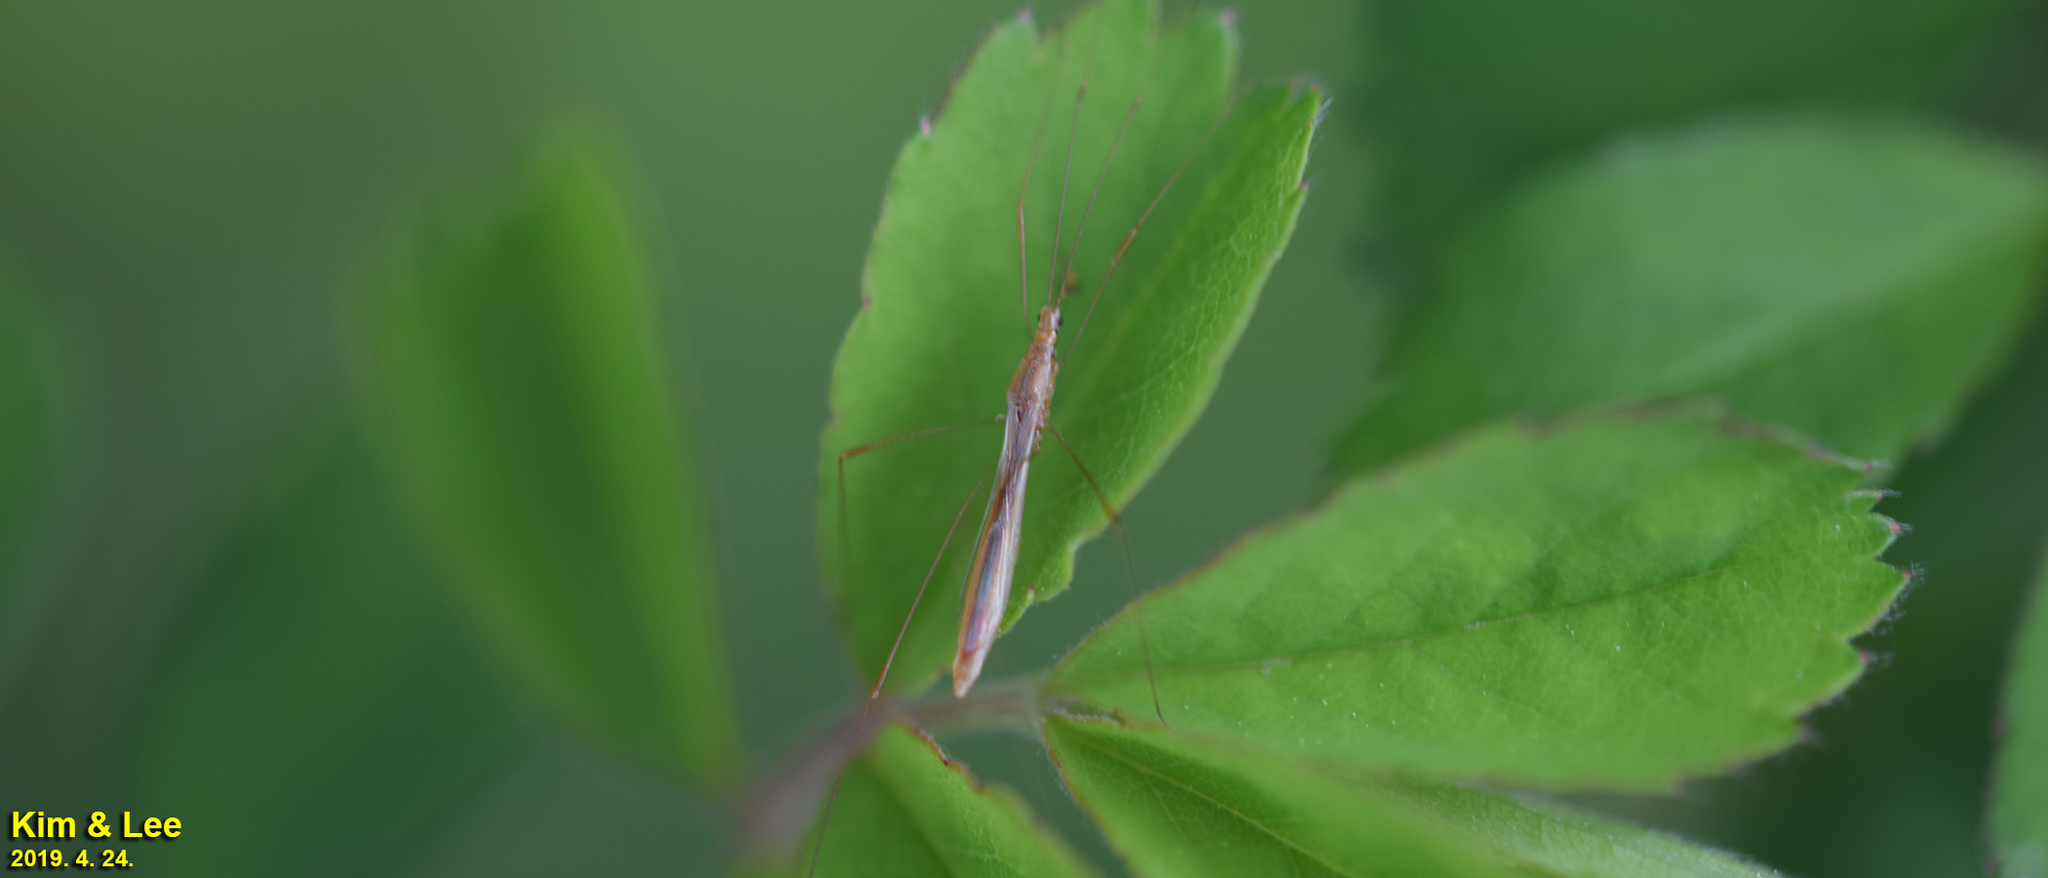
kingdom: Animalia
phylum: Arthropoda
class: Insecta
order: Hemiptera
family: Berytidae
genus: Yemma
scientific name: Yemma exilis
